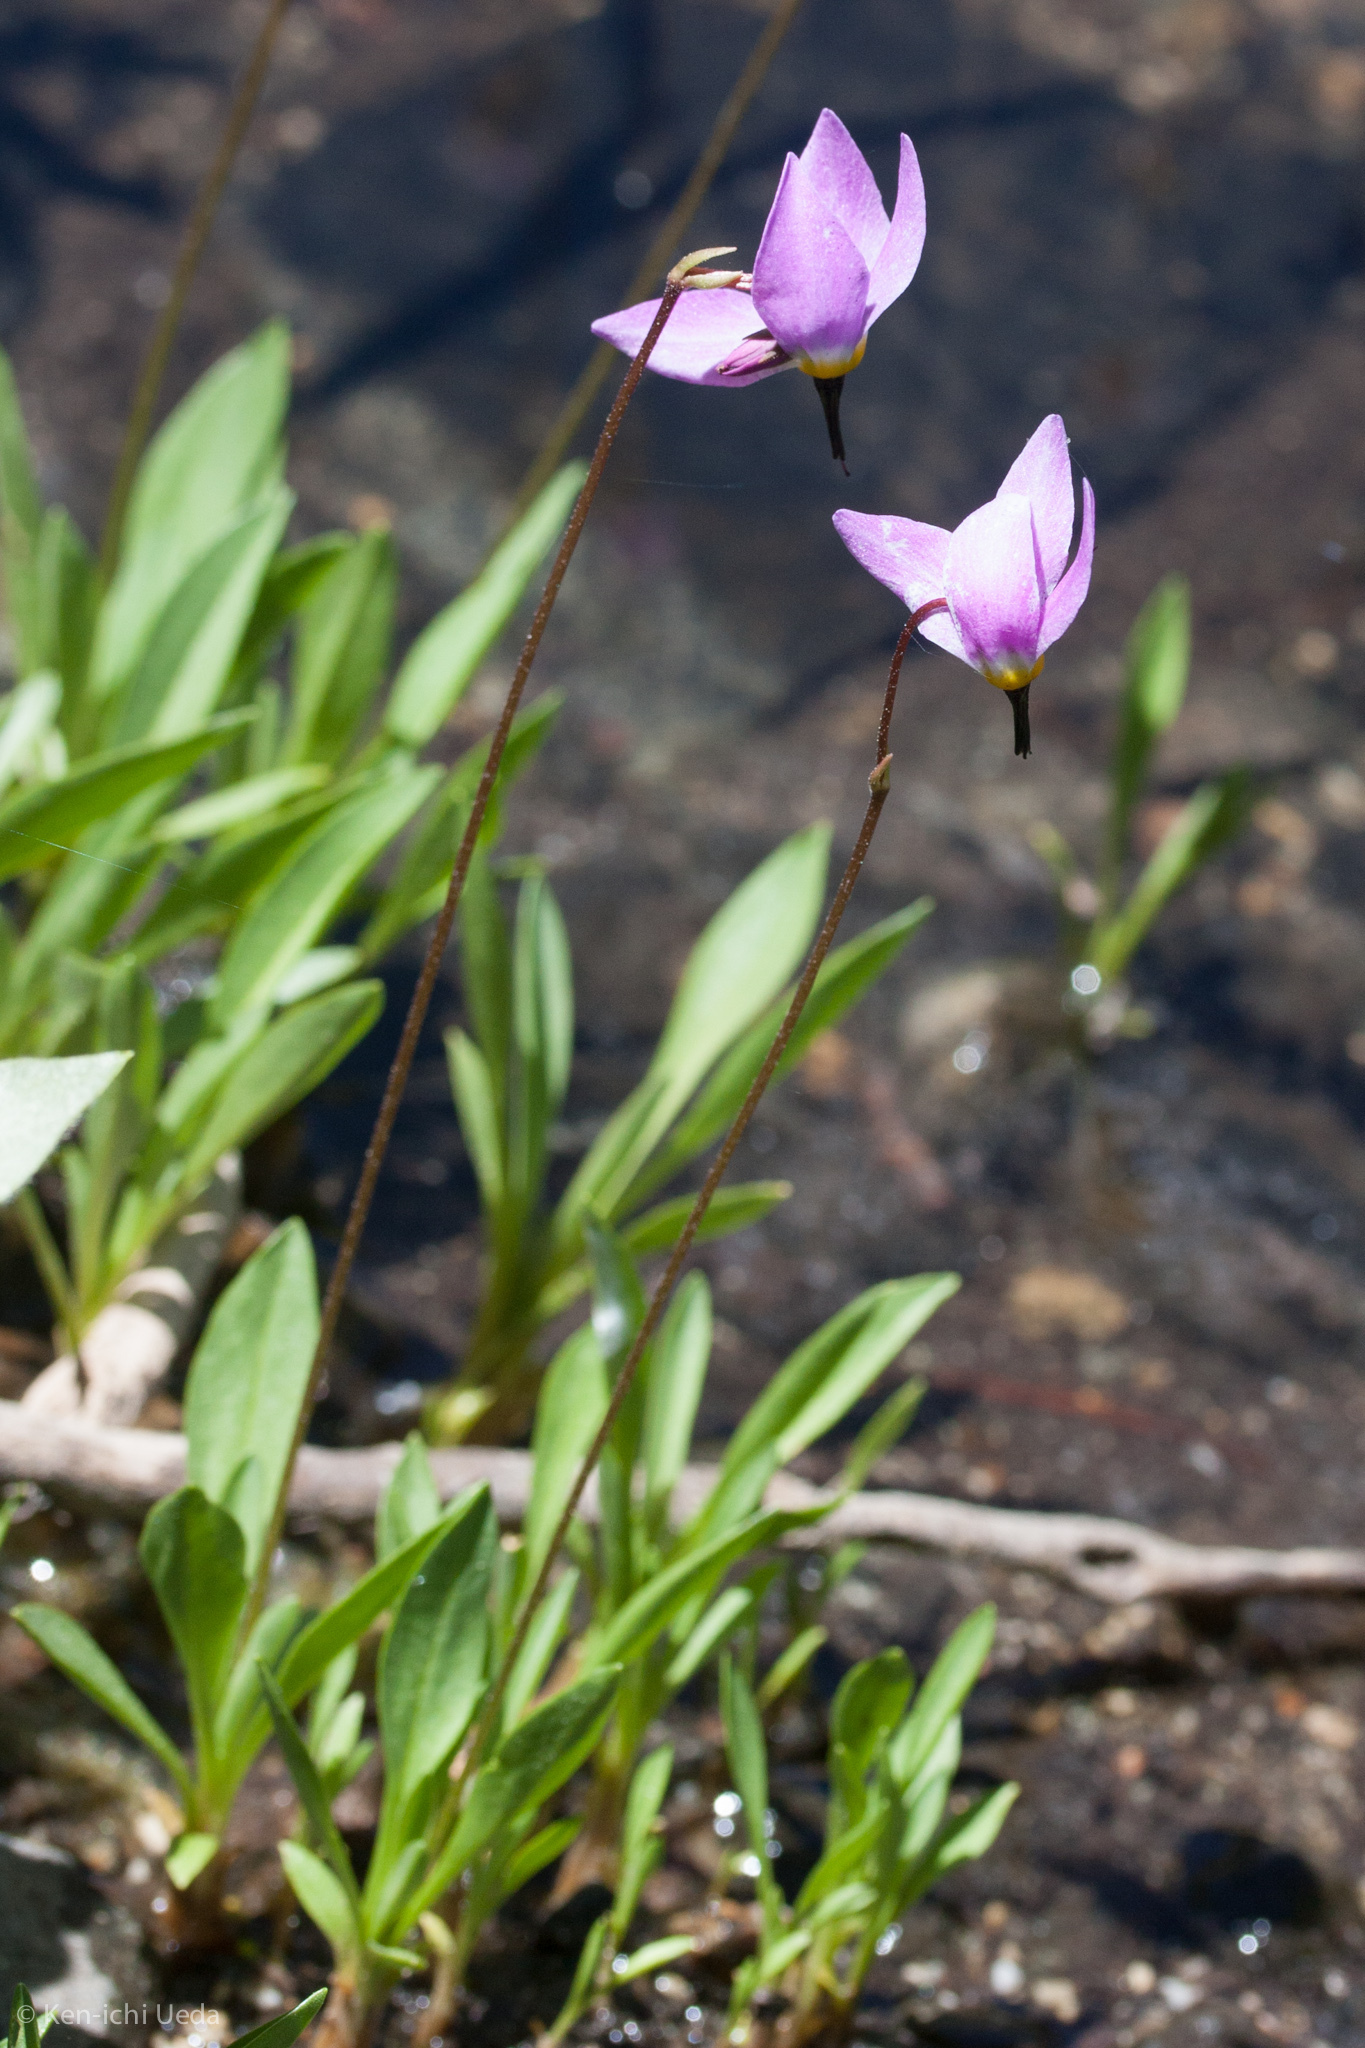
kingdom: Plantae
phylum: Tracheophyta
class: Magnoliopsida
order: Ericales
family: Primulaceae
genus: Dodecatheon
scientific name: Dodecatheon jeffreyanum
